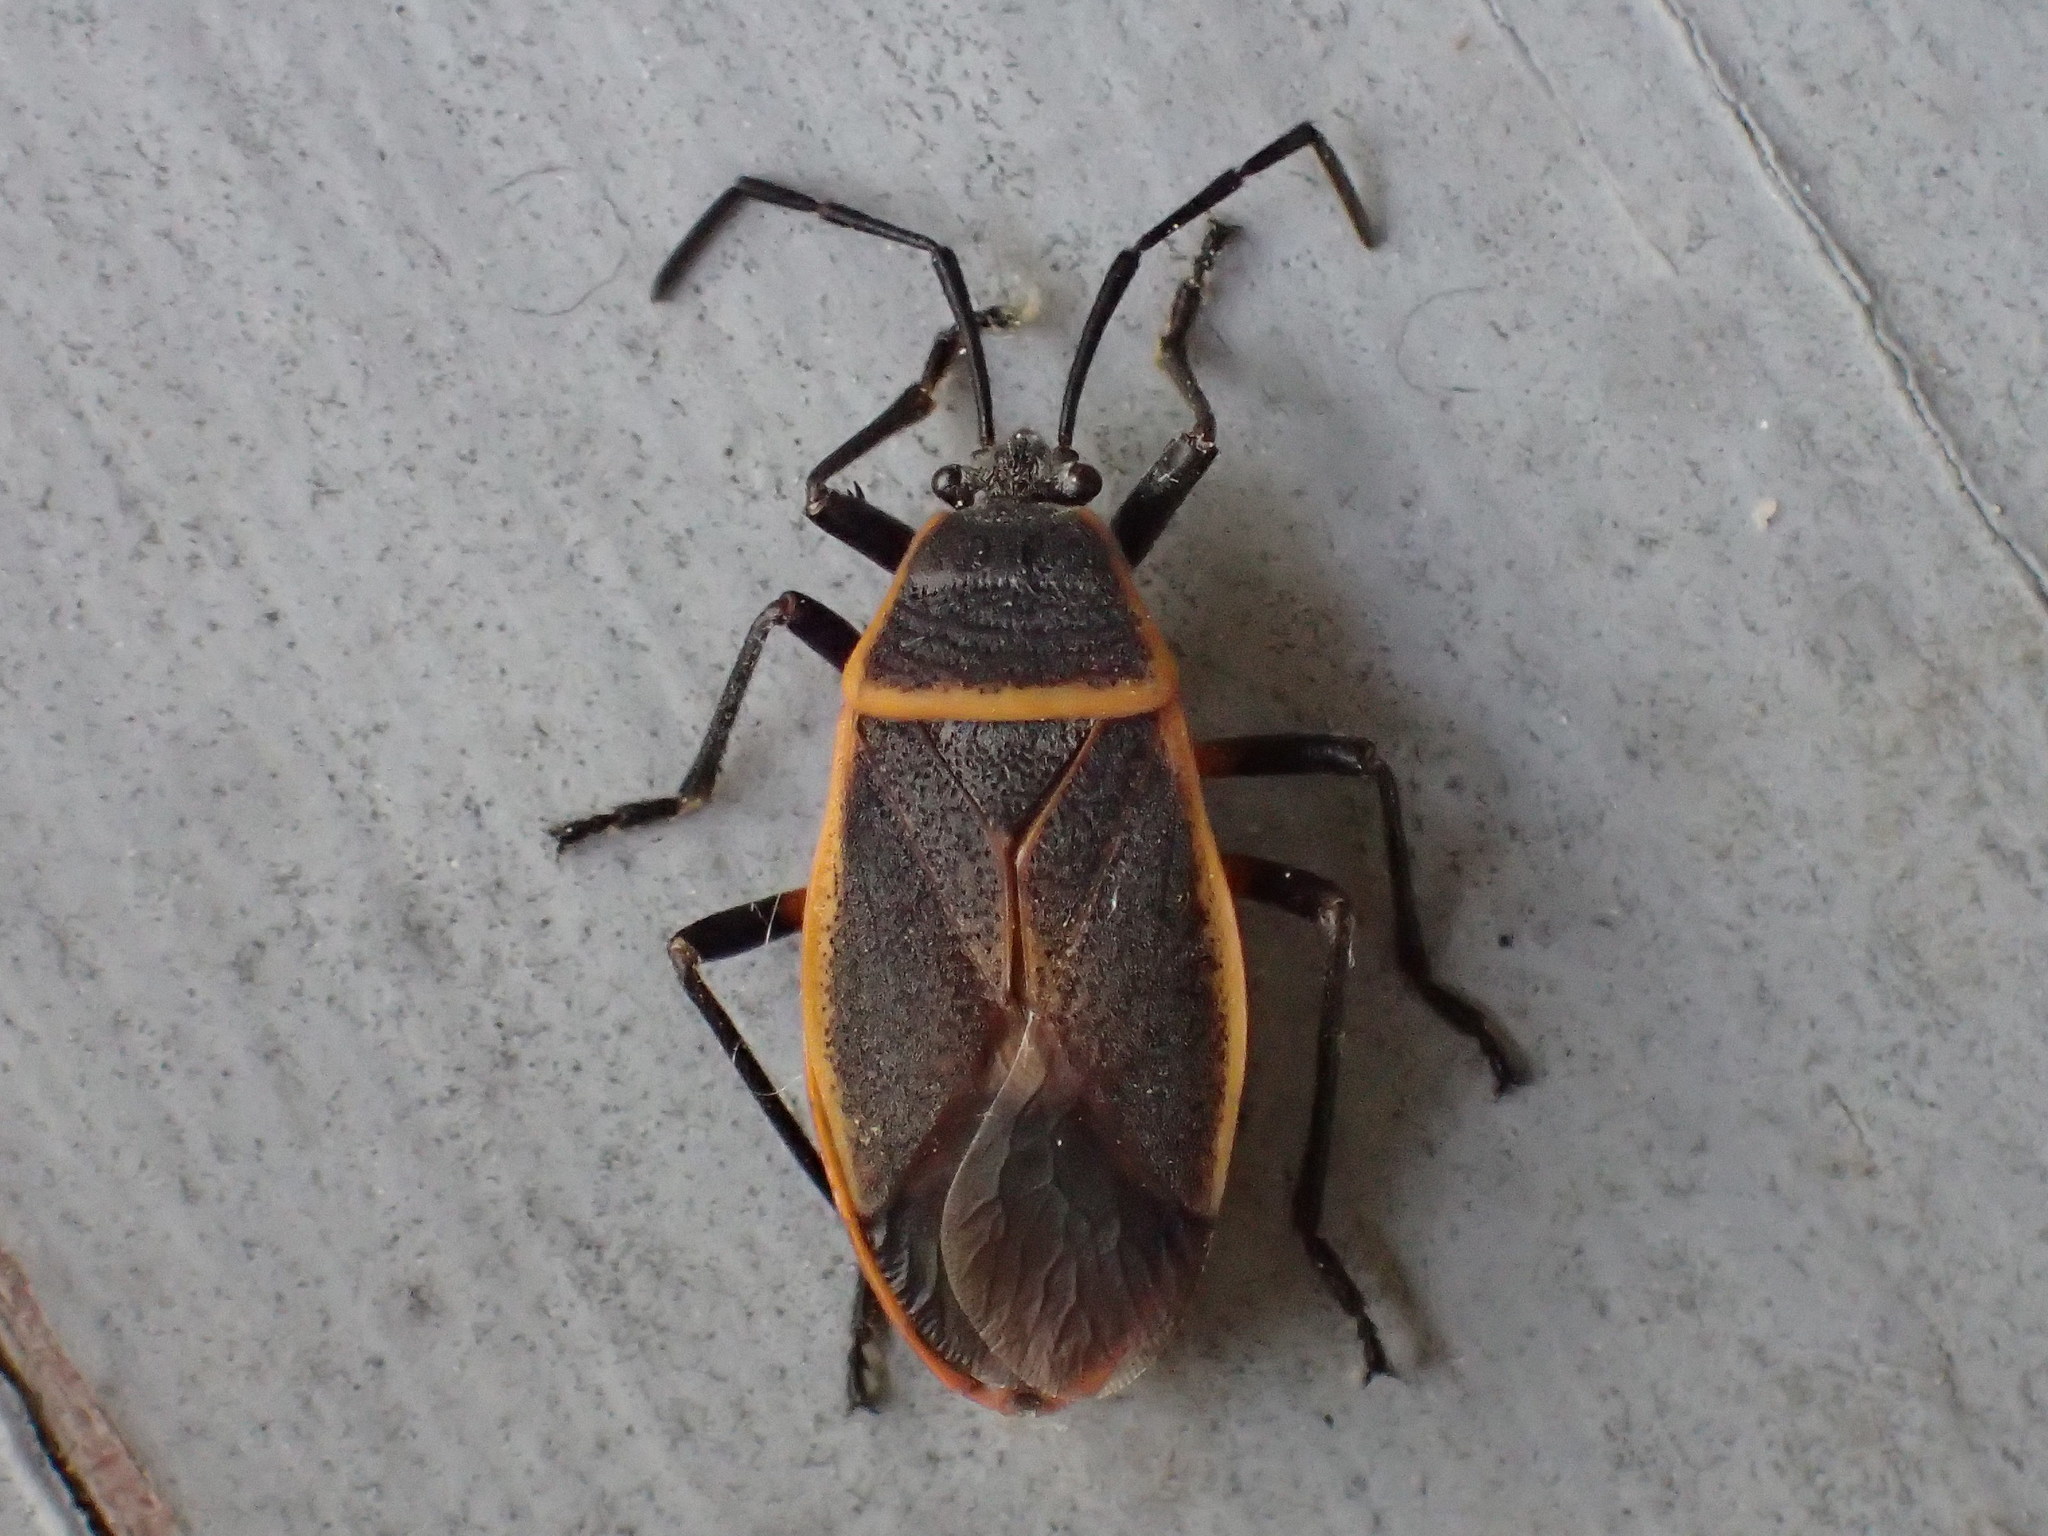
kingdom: Animalia
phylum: Arthropoda
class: Insecta
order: Hemiptera
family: Largidae
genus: Largus
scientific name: Largus succinctus
